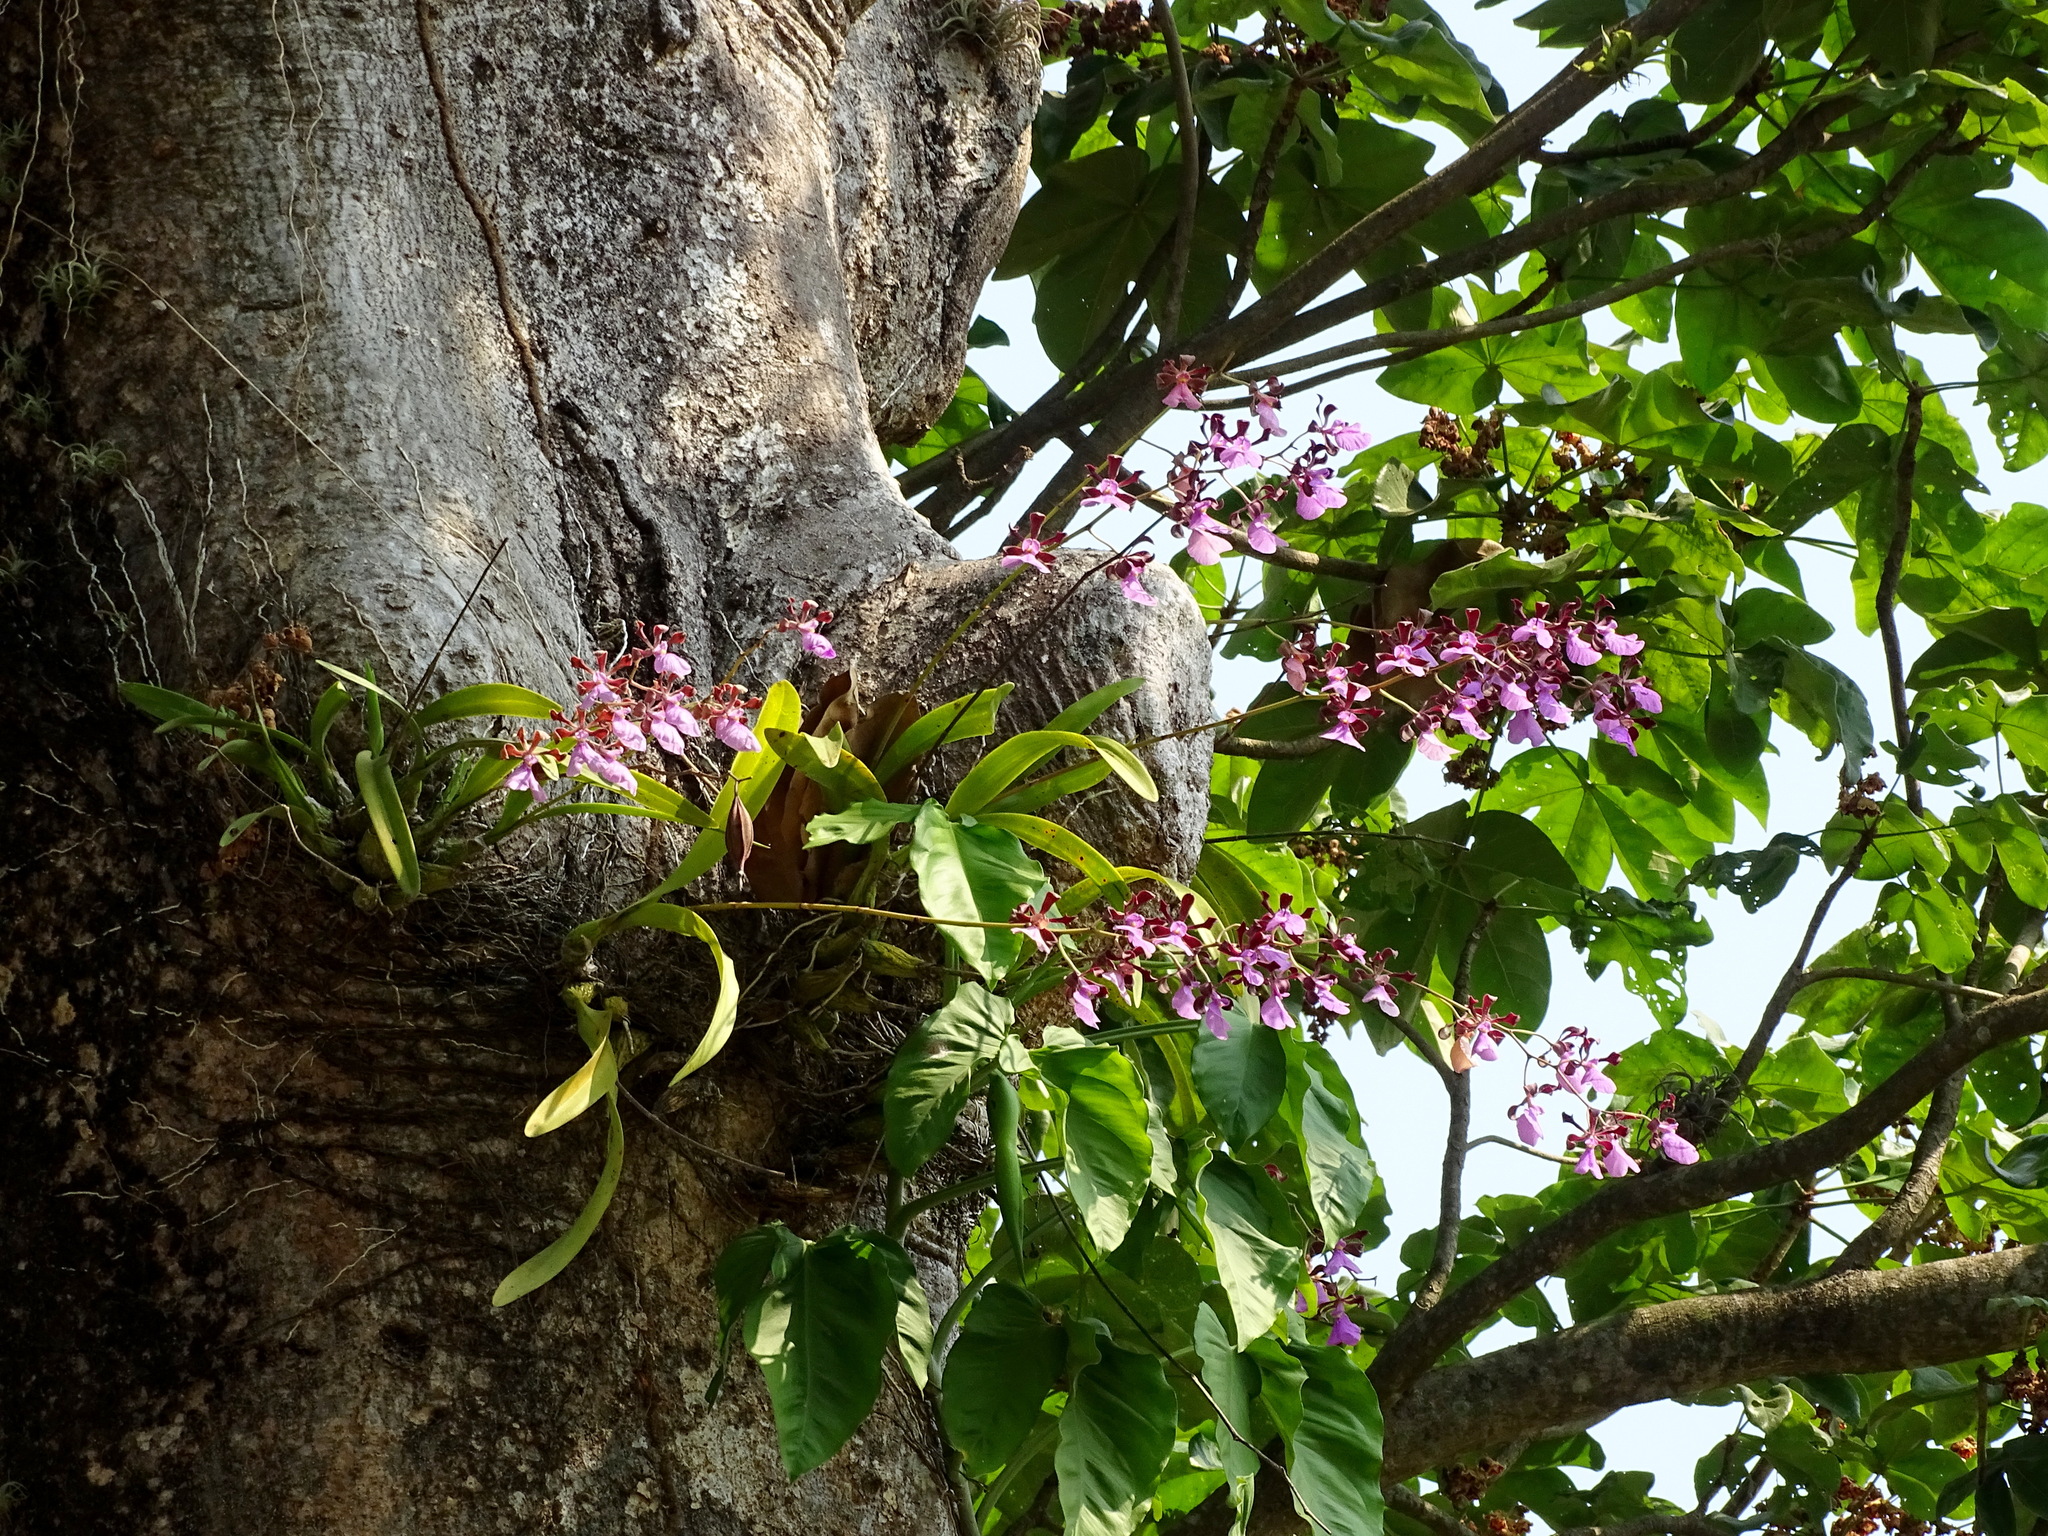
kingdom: Plantae
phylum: Tracheophyta
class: Liliopsida
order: Asparagales
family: Orchidaceae
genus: Encyclia
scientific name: Encyclia cordigera
